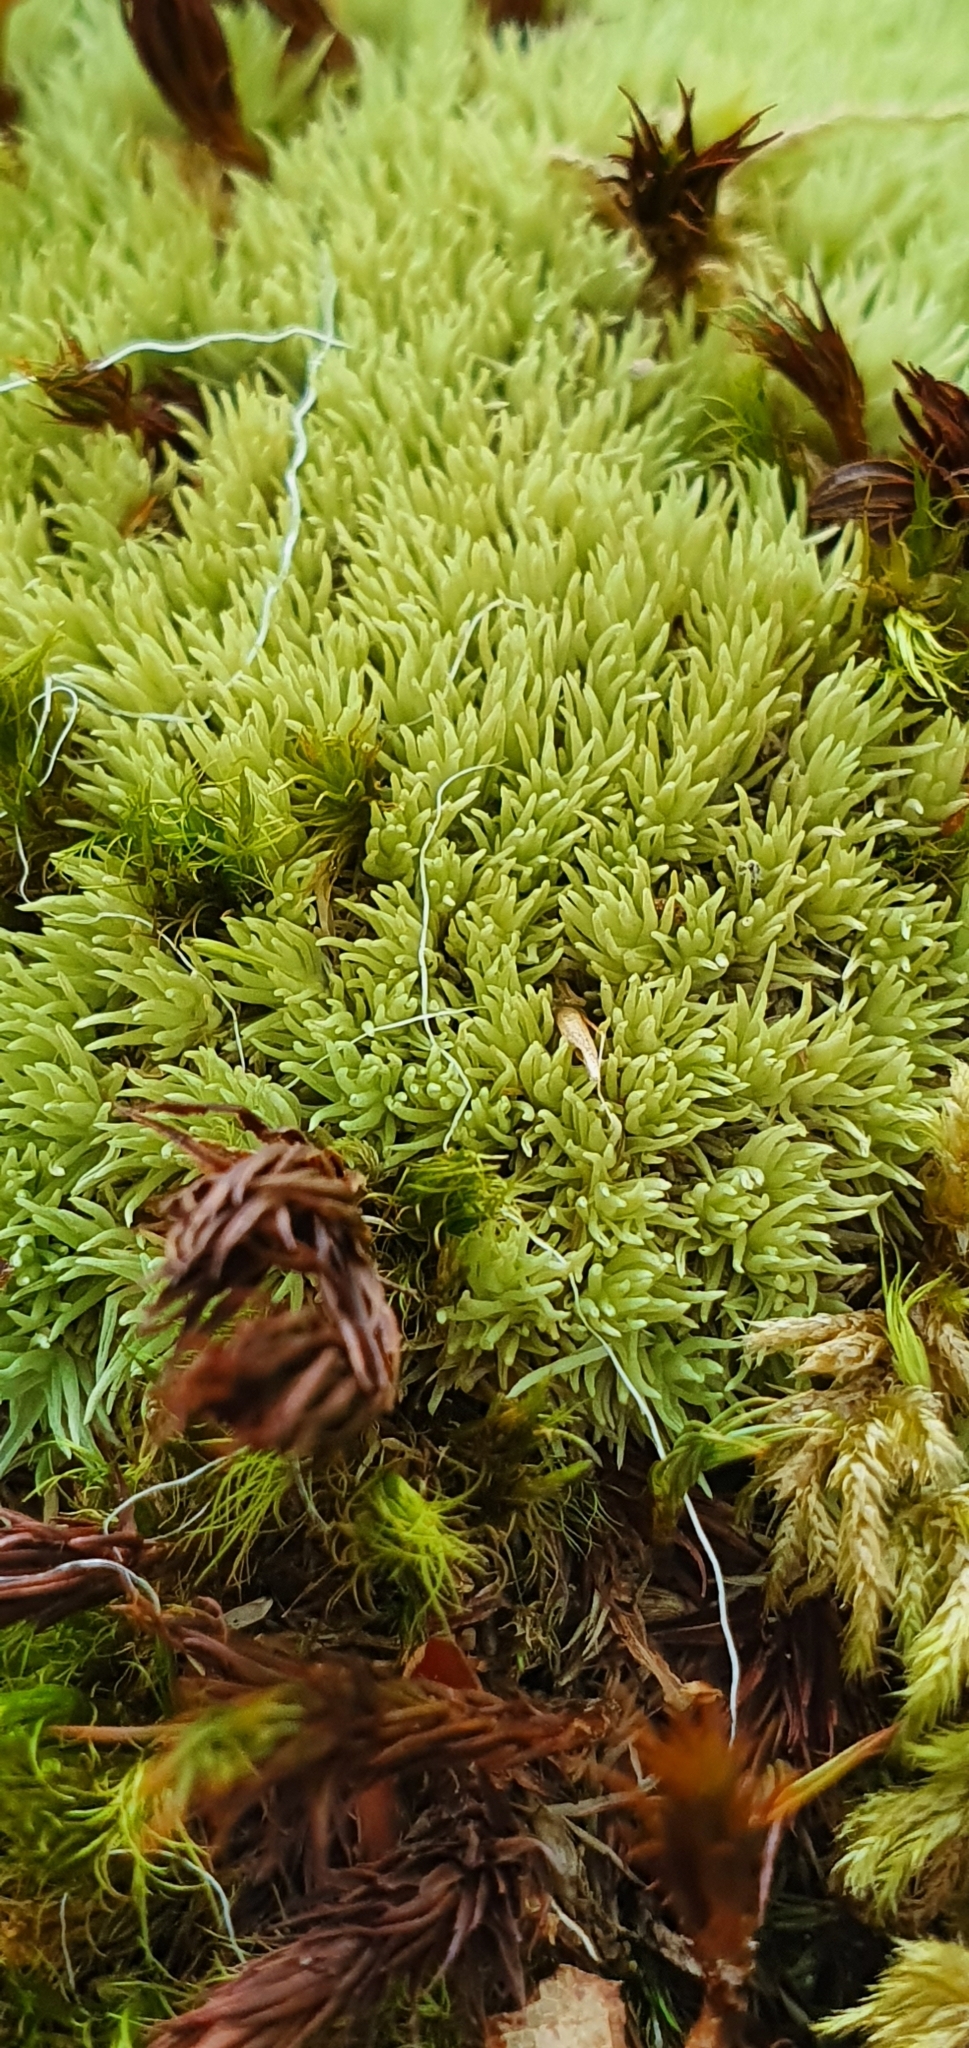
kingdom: Plantae
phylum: Bryophyta
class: Bryopsida
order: Dicranales
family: Leucobryaceae
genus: Leucobryum
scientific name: Leucobryum glaucum
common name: Large white-moss
